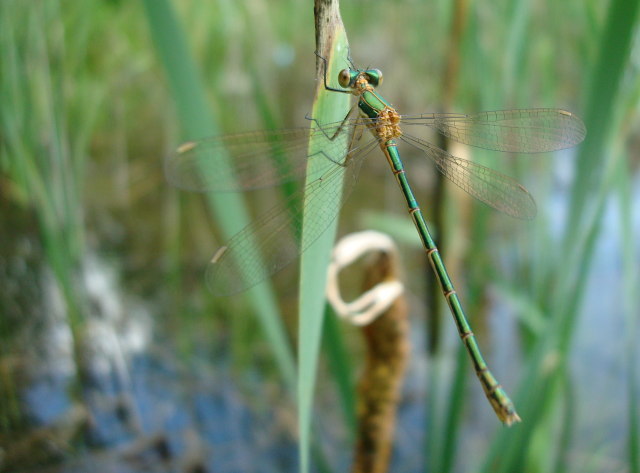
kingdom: Animalia
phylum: Arthropoda
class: Insecta
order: Odonata
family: Lestidae
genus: Lestes
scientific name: Lestes sponsa
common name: Common spreadwing
